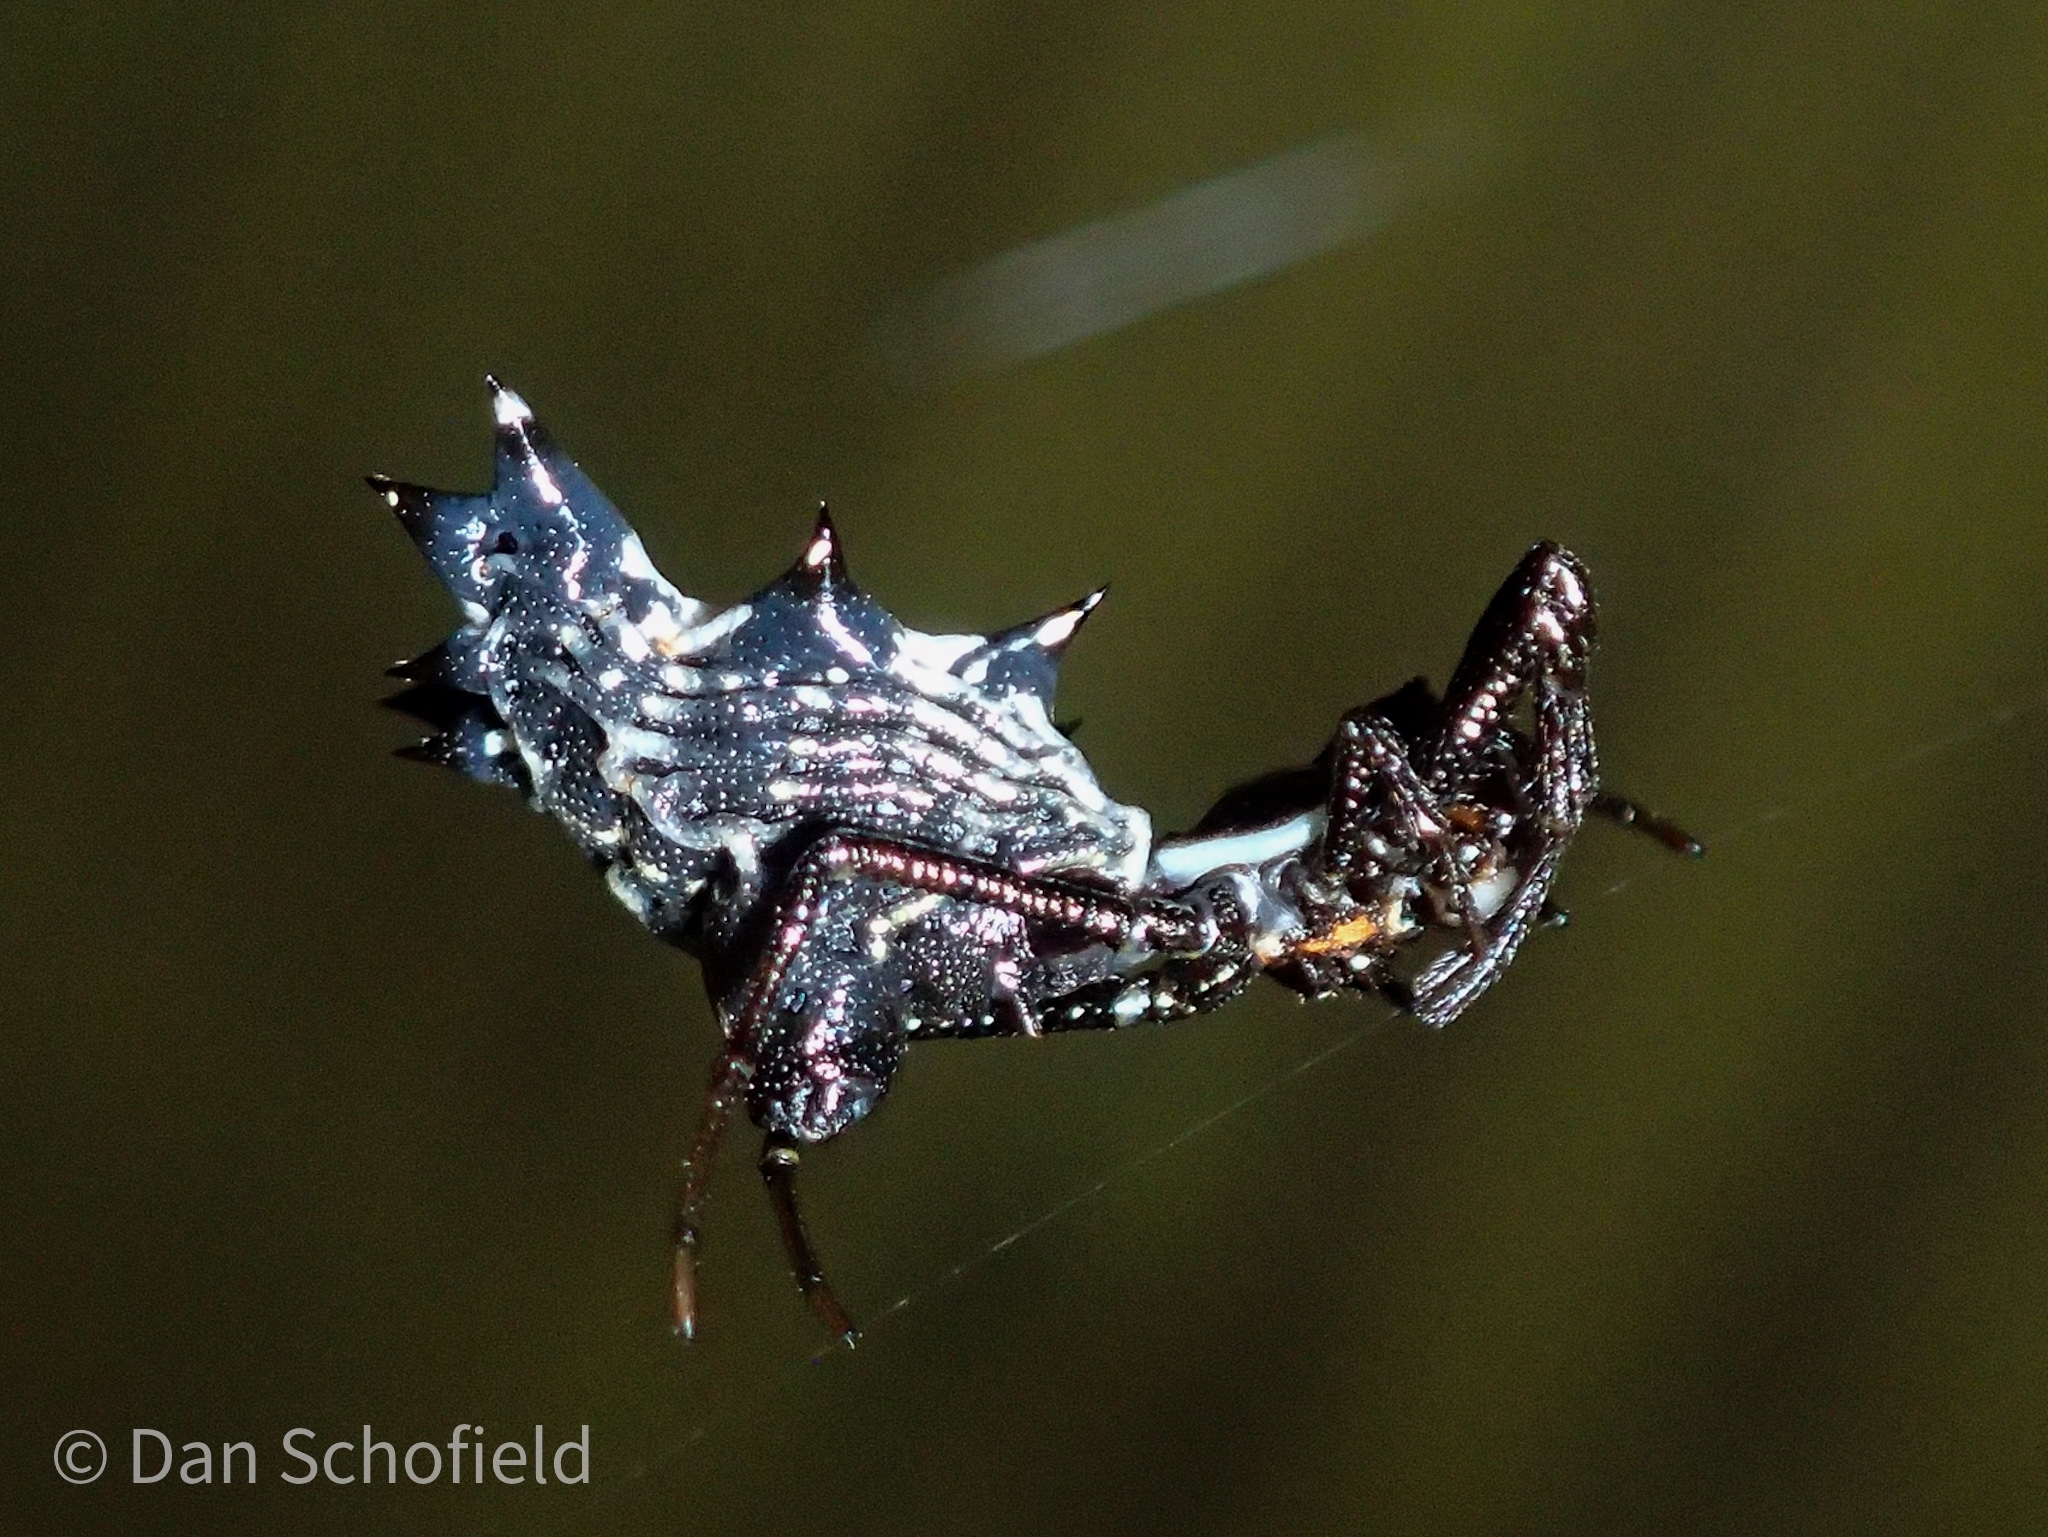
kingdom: Animalia
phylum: Arthropoda
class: Arachnida
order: Araneae
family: Araneidae
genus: Micrathena
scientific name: Micrathena gracilis
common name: Orb weavers
